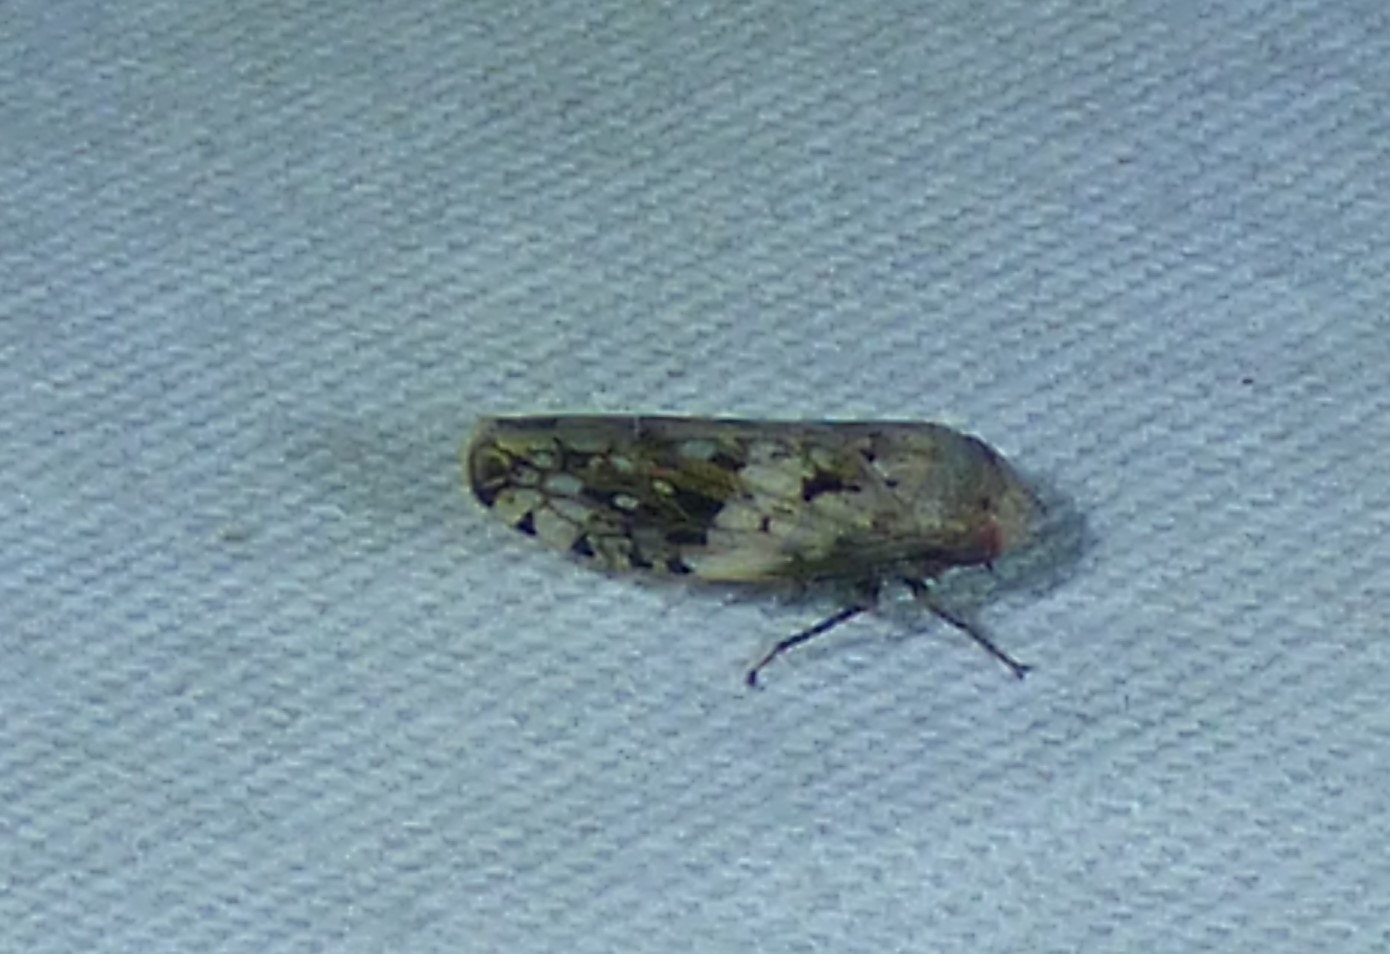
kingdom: Animalia
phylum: Arthropoda
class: Insecta
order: Hemiptera
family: Cicadellidae
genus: Menosoma
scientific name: Menosoma cinctum
